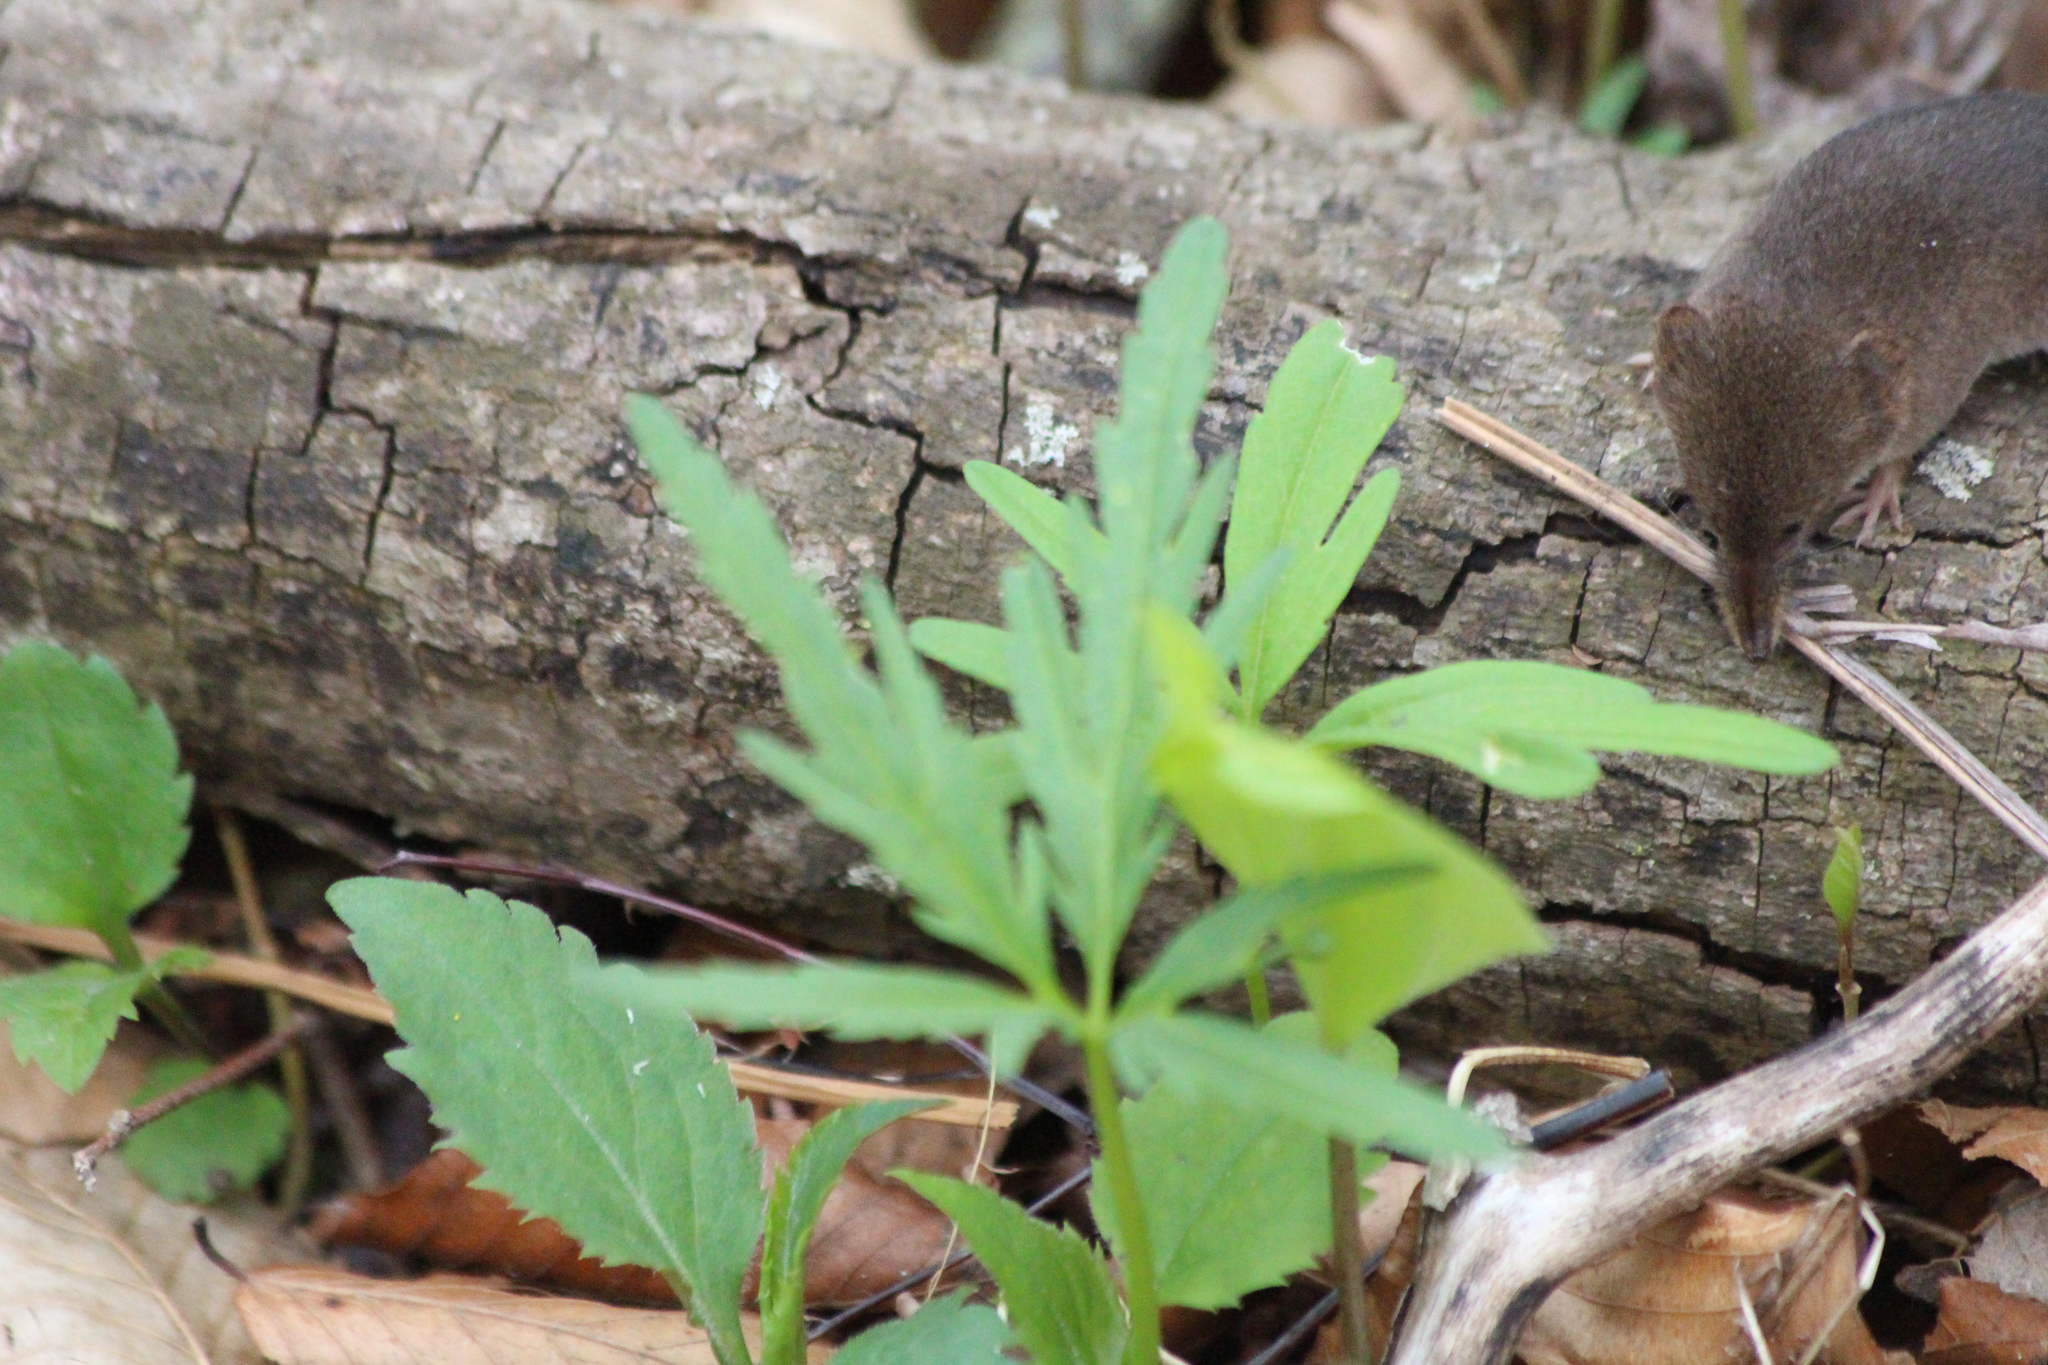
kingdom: Animalia
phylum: Chordata
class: Mammalia
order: Soricomorpha
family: Soricidae
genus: Sorex
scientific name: Sorex cinereus
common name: Cinereus shrew
